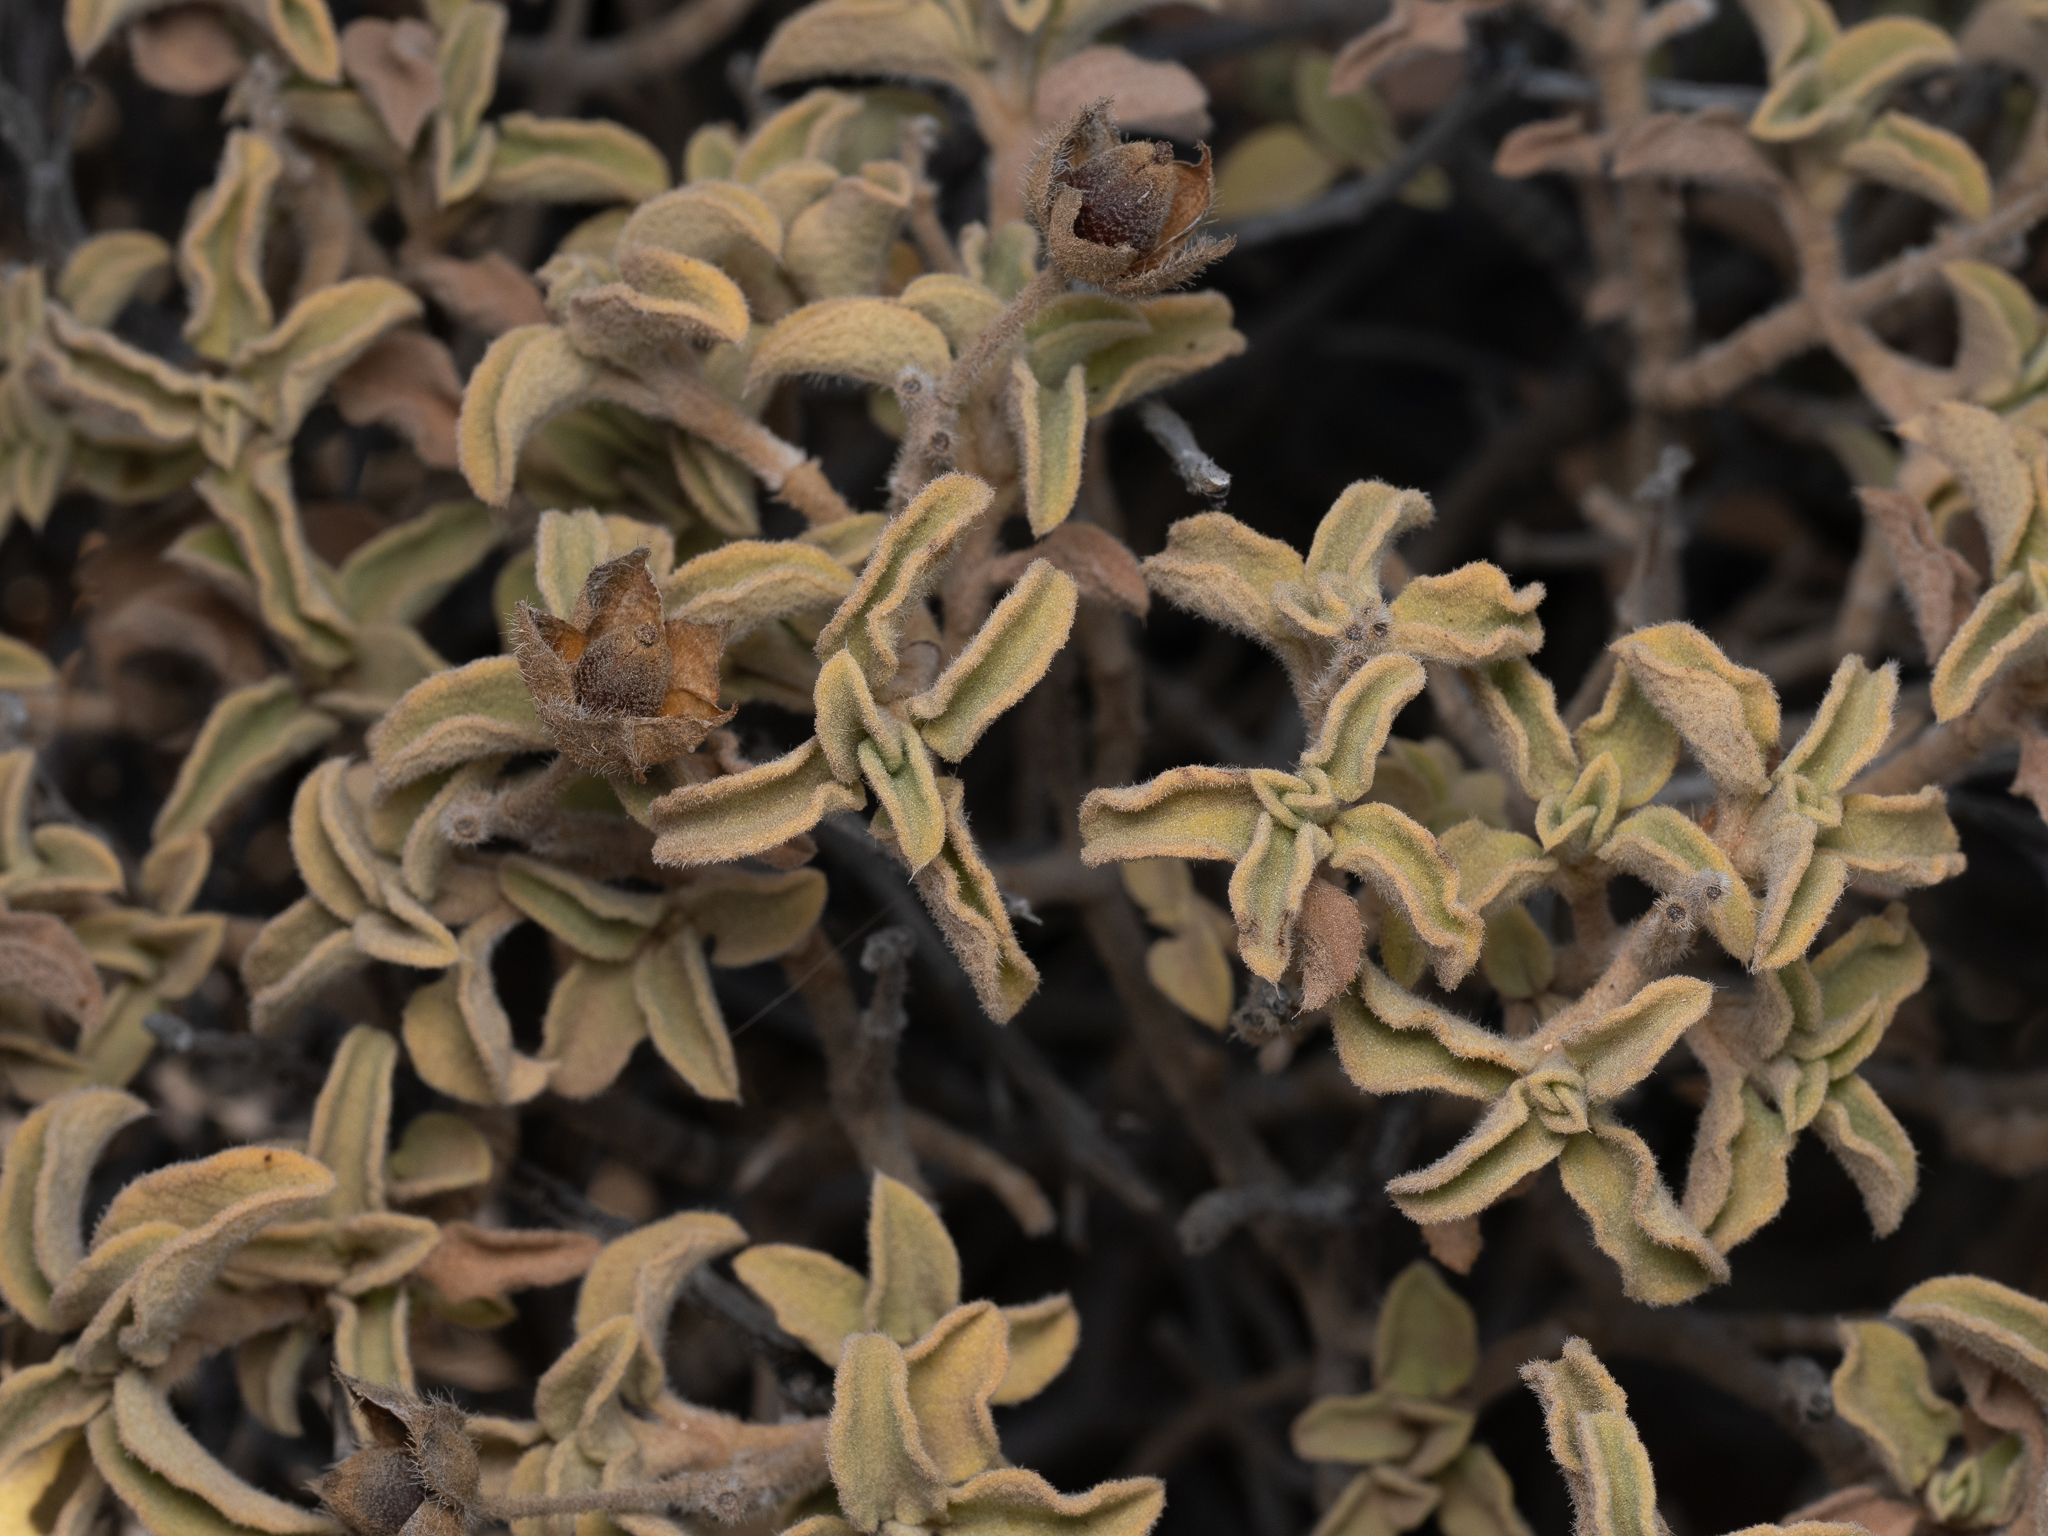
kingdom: Plantae
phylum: Tracheophyta
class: Magnoliopsida
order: Malvales
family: Cistaceae
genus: Cistus
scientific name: Cistus parviflorus
